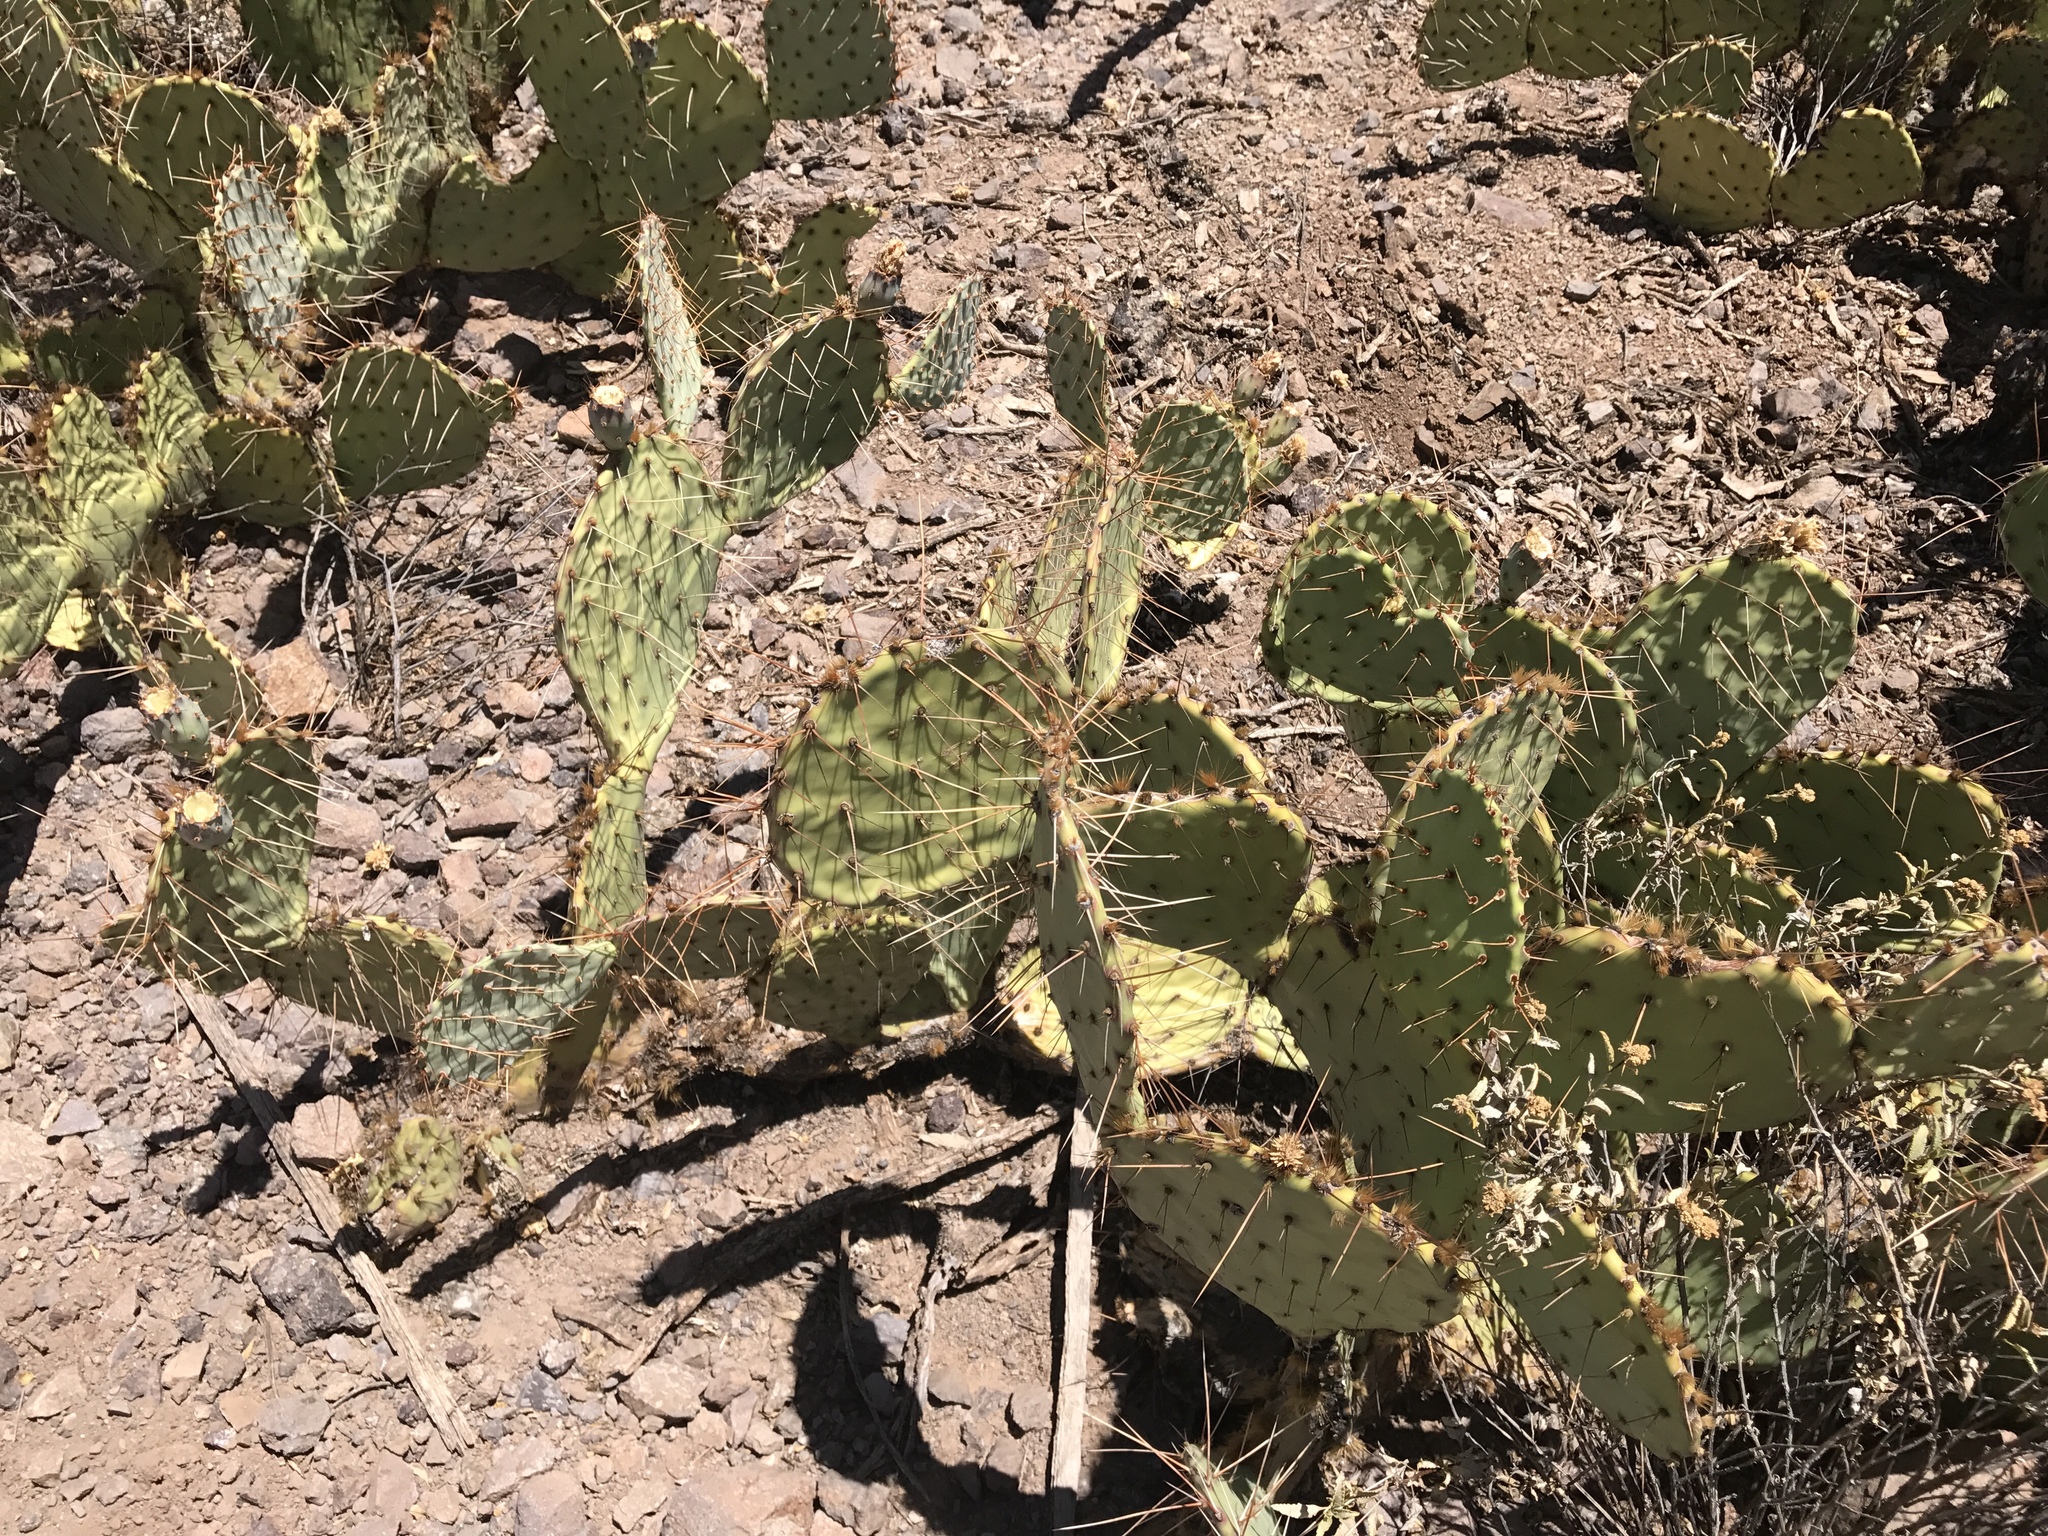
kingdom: Plantae
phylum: Tracheophyta
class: Magnoliopsida
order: Caryophyllales
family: Cactaceae
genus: Opuntia
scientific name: Opuntia engelmannii
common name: Cactus-apple
